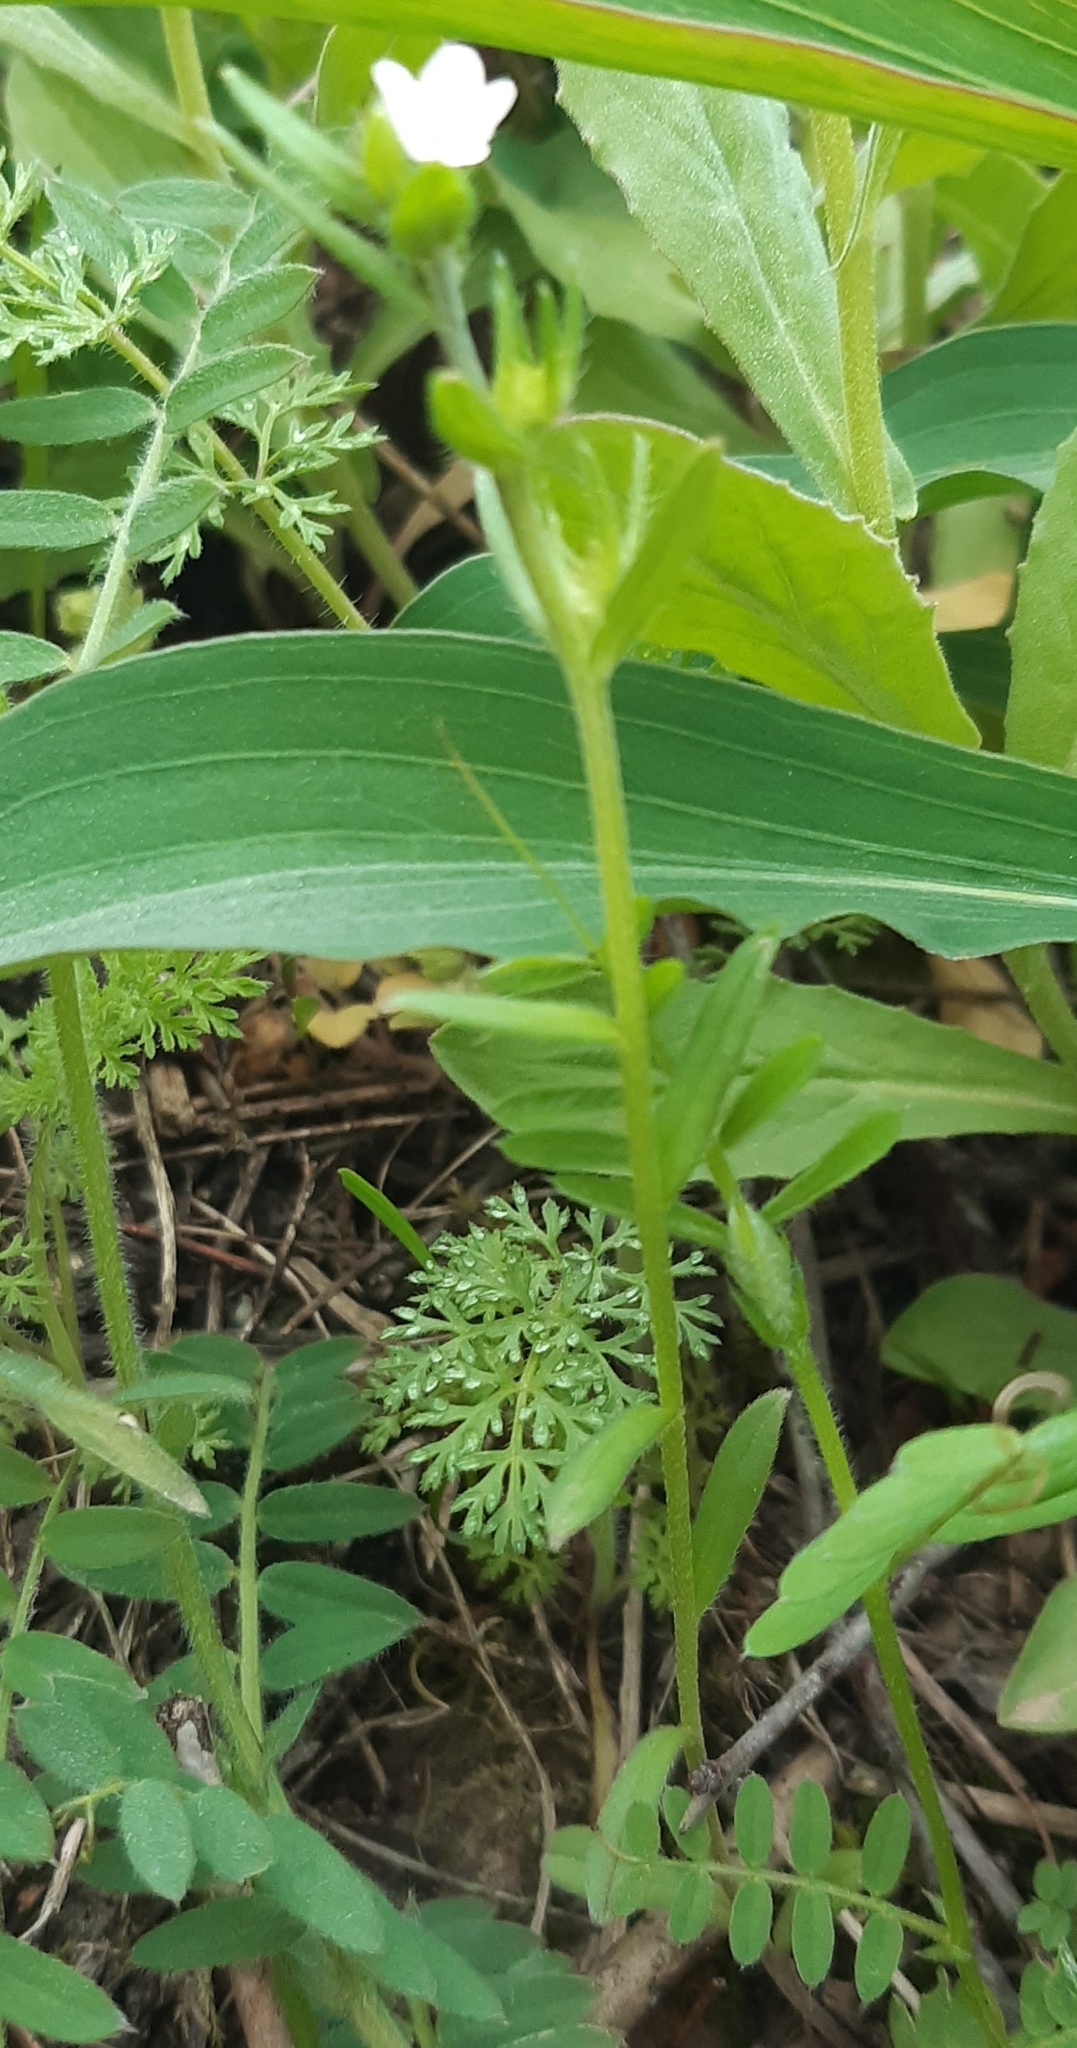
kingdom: Plantae
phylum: Tracheophyta
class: Magnoliopsida
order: Boraginales
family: Boraginaceae
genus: Buglossoides
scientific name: Buglossoides arvensis
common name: Corn gromwell
